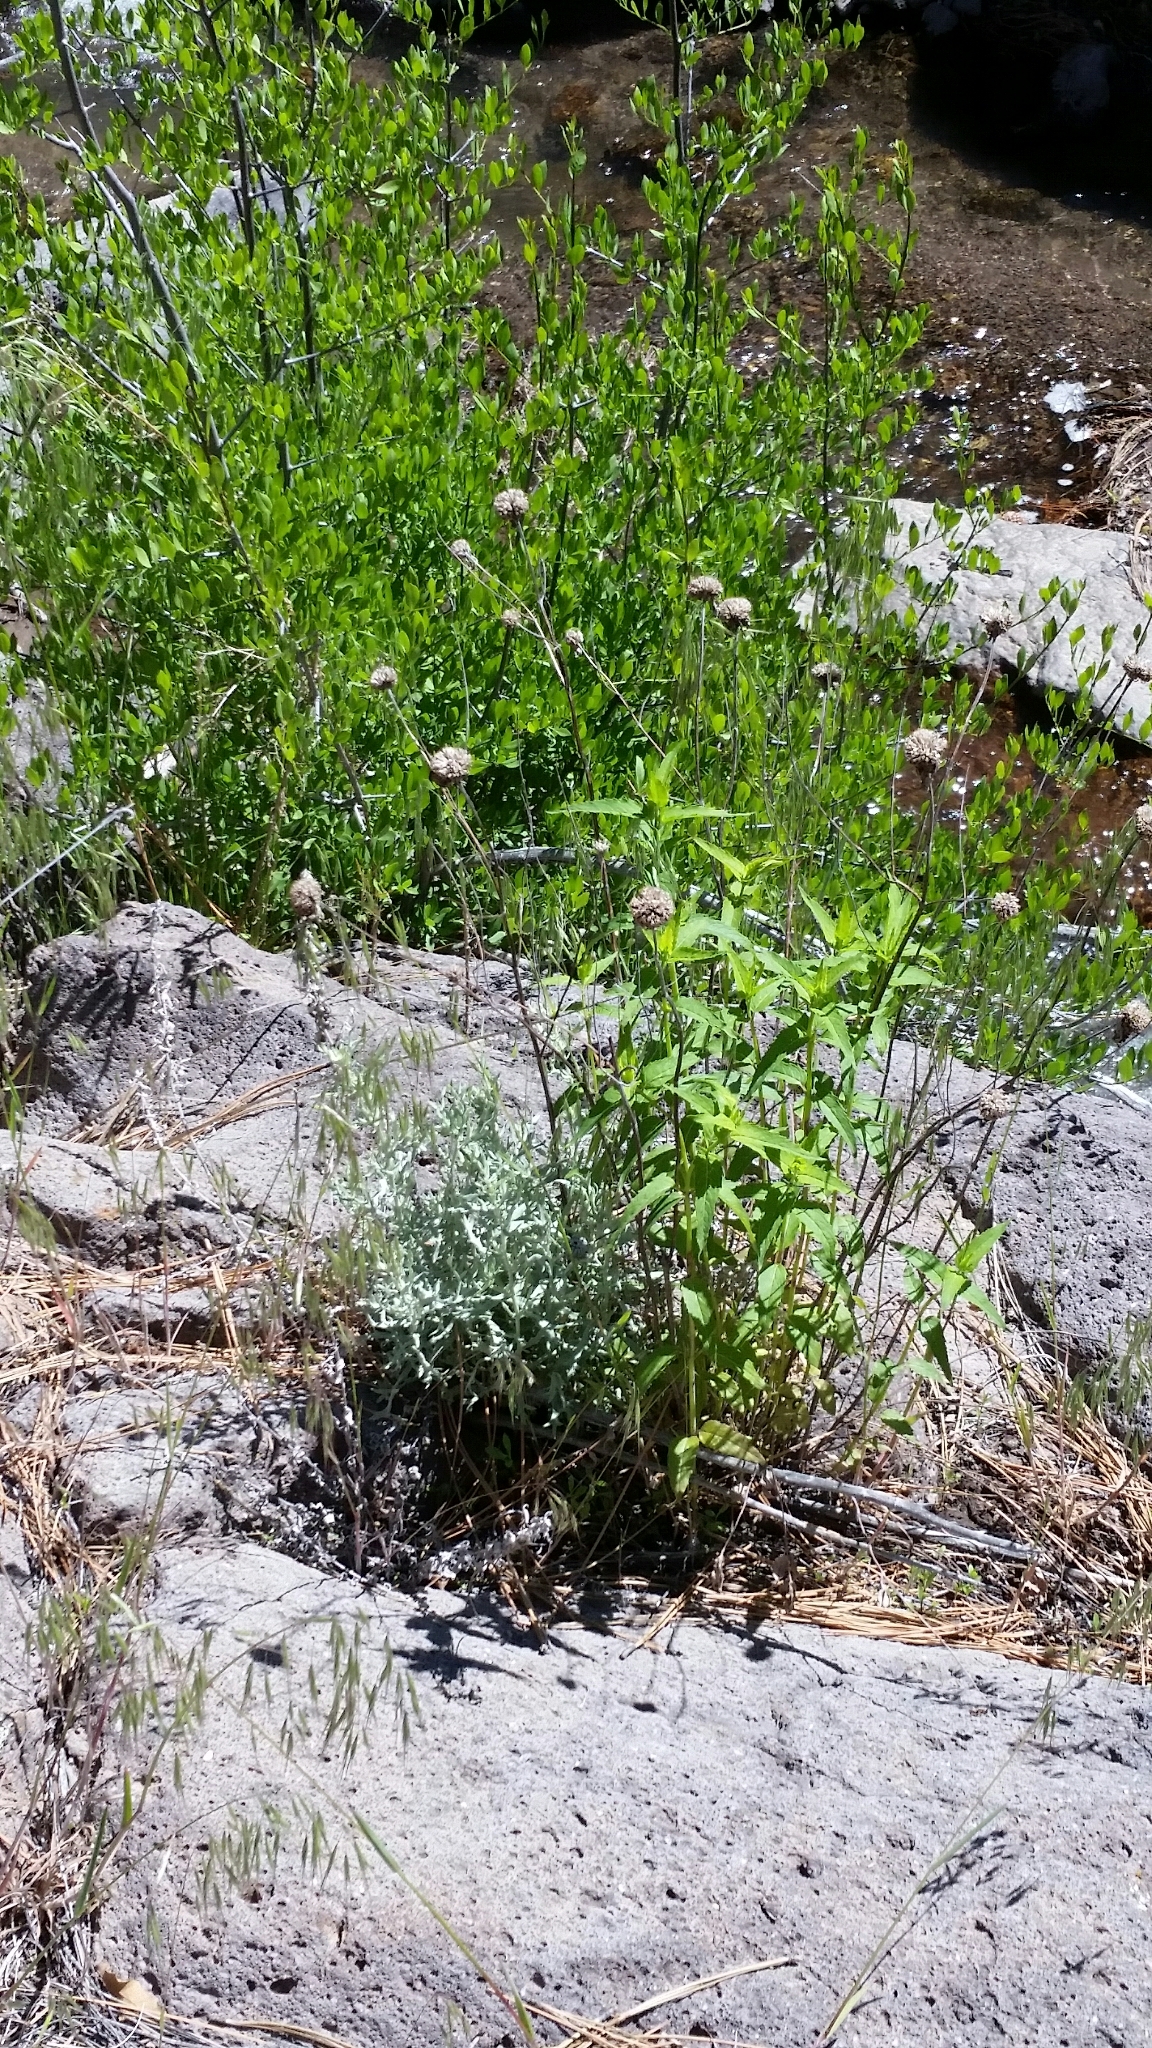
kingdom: Plantae
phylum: Tracheophyta
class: Magnoliopsida
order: Lamiales
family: Lamiaceae
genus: Monarda
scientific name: Monarda fistulosa
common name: Purple beebalm
